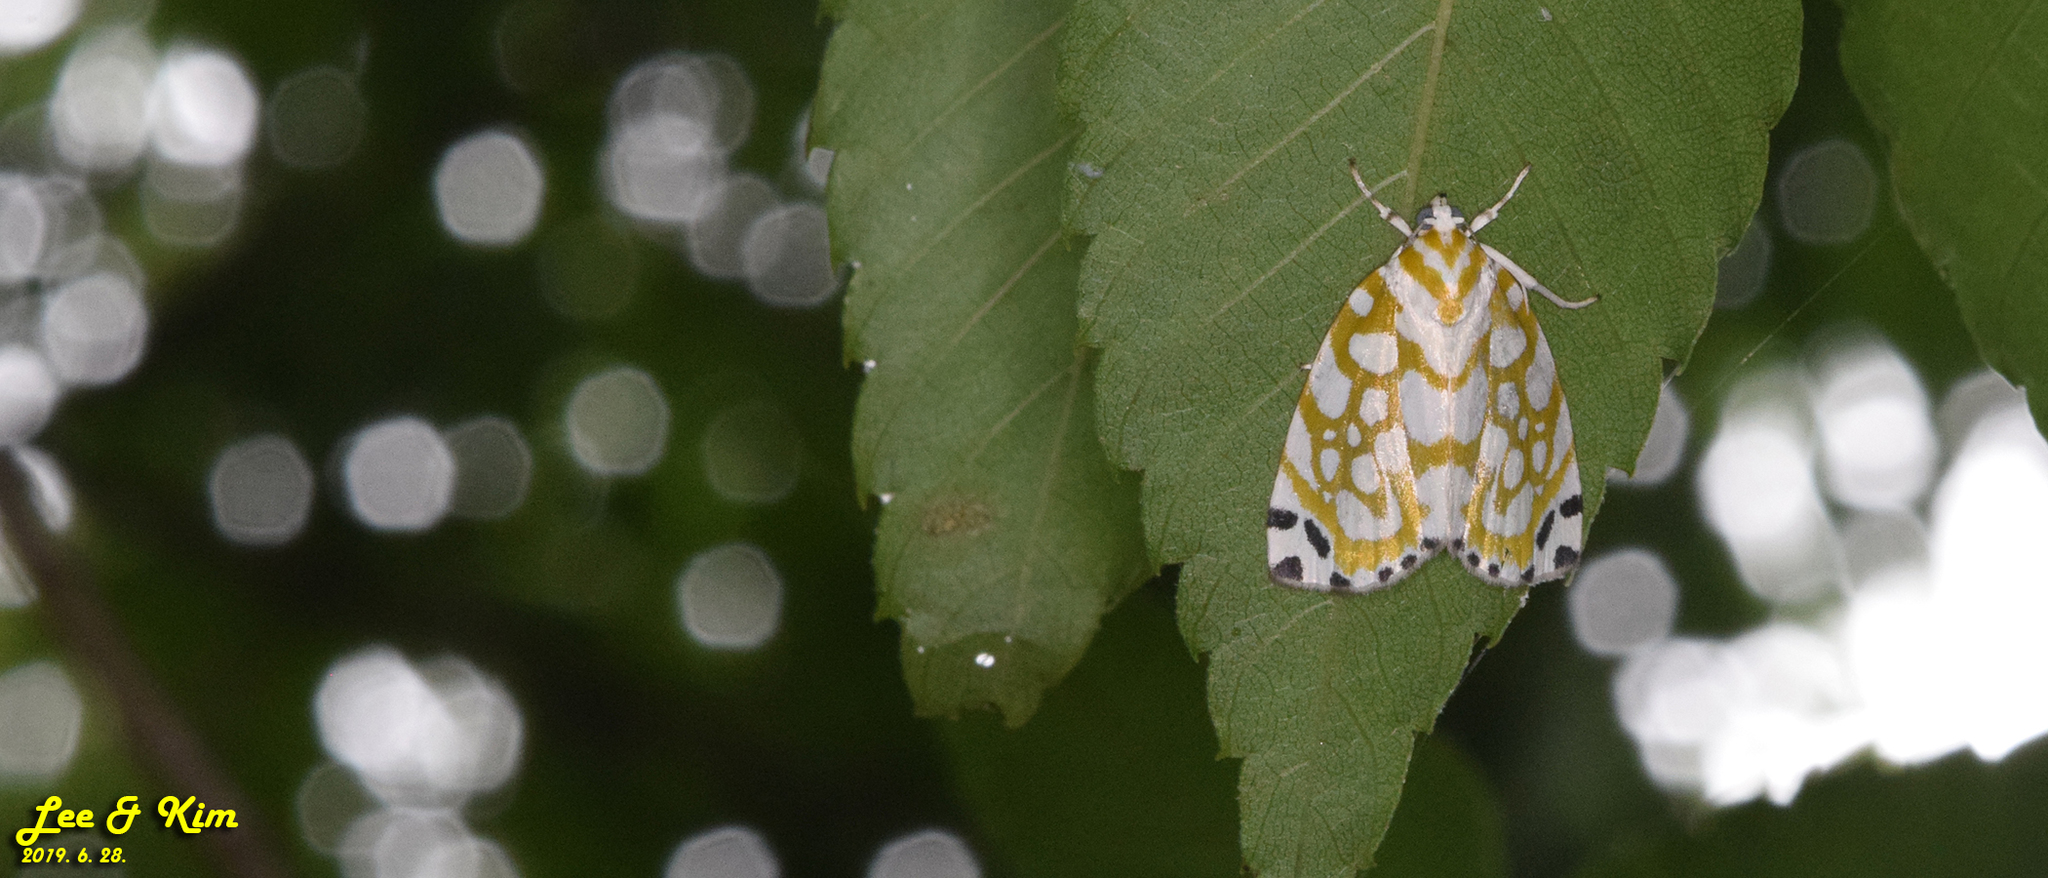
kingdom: Animalia
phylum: Arthropoda
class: Insecta
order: Lepidoptera
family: Nolidae
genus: Sinna
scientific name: Sinna extrema
